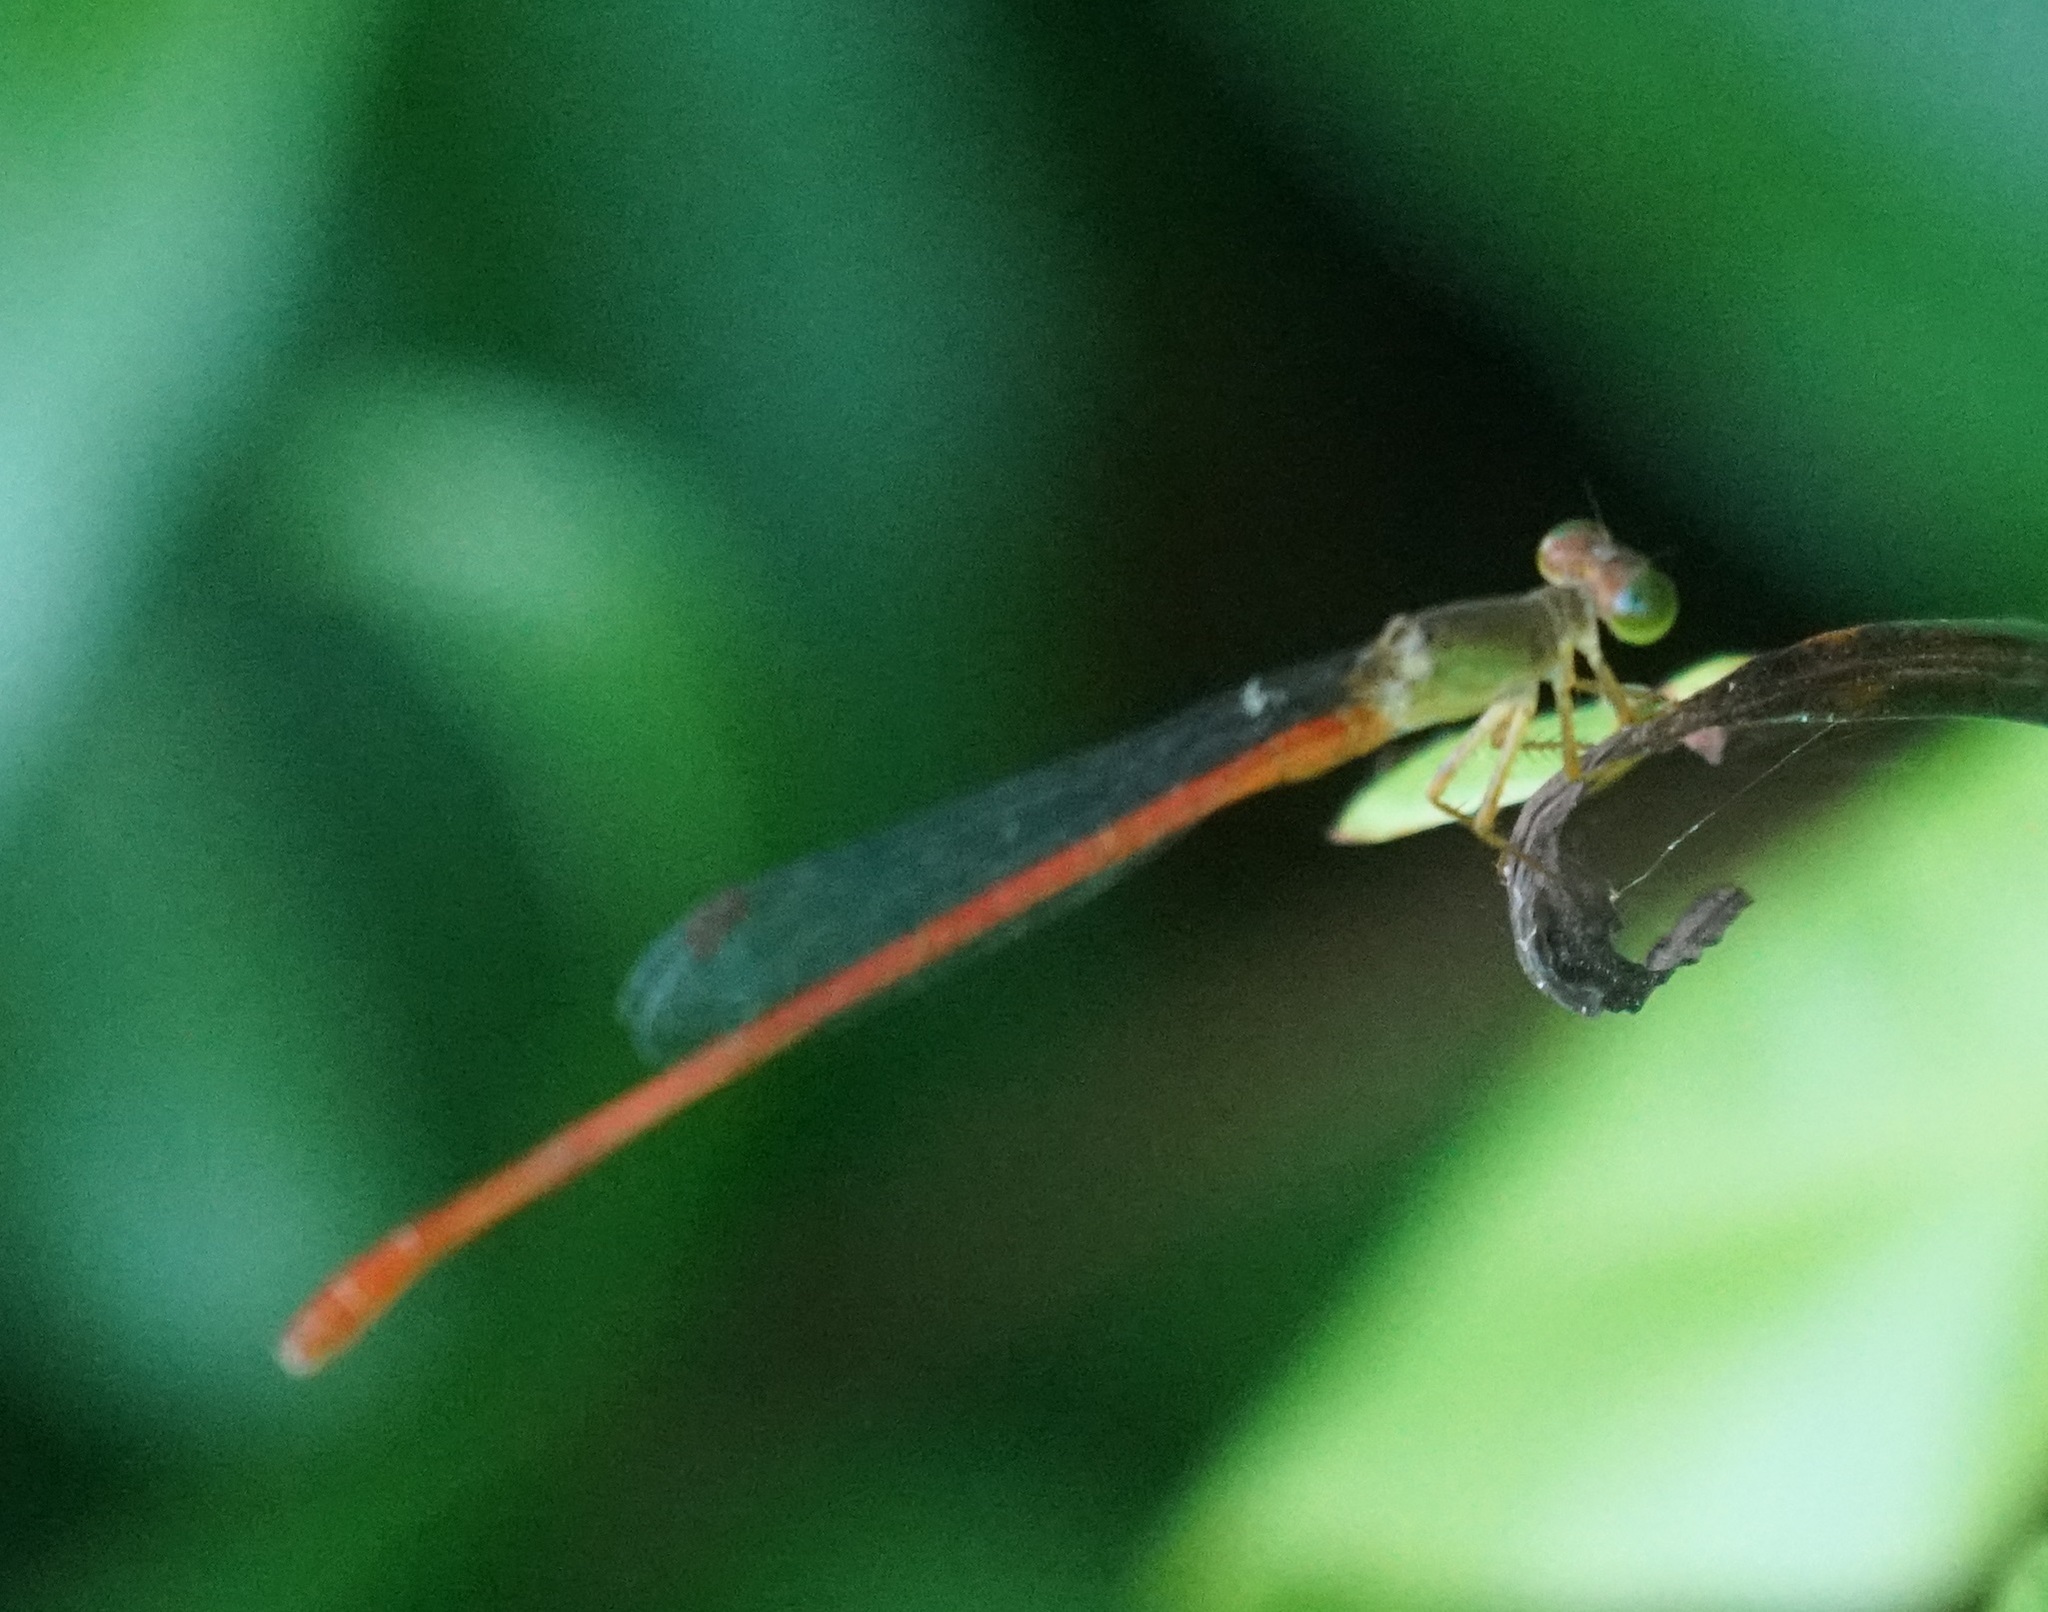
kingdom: Animalia
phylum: Arthropoda
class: Insecta
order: Odonata
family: Coenagrionidae
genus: Ceriagrion
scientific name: Ceriagrion aeruginosum
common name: Redtail
